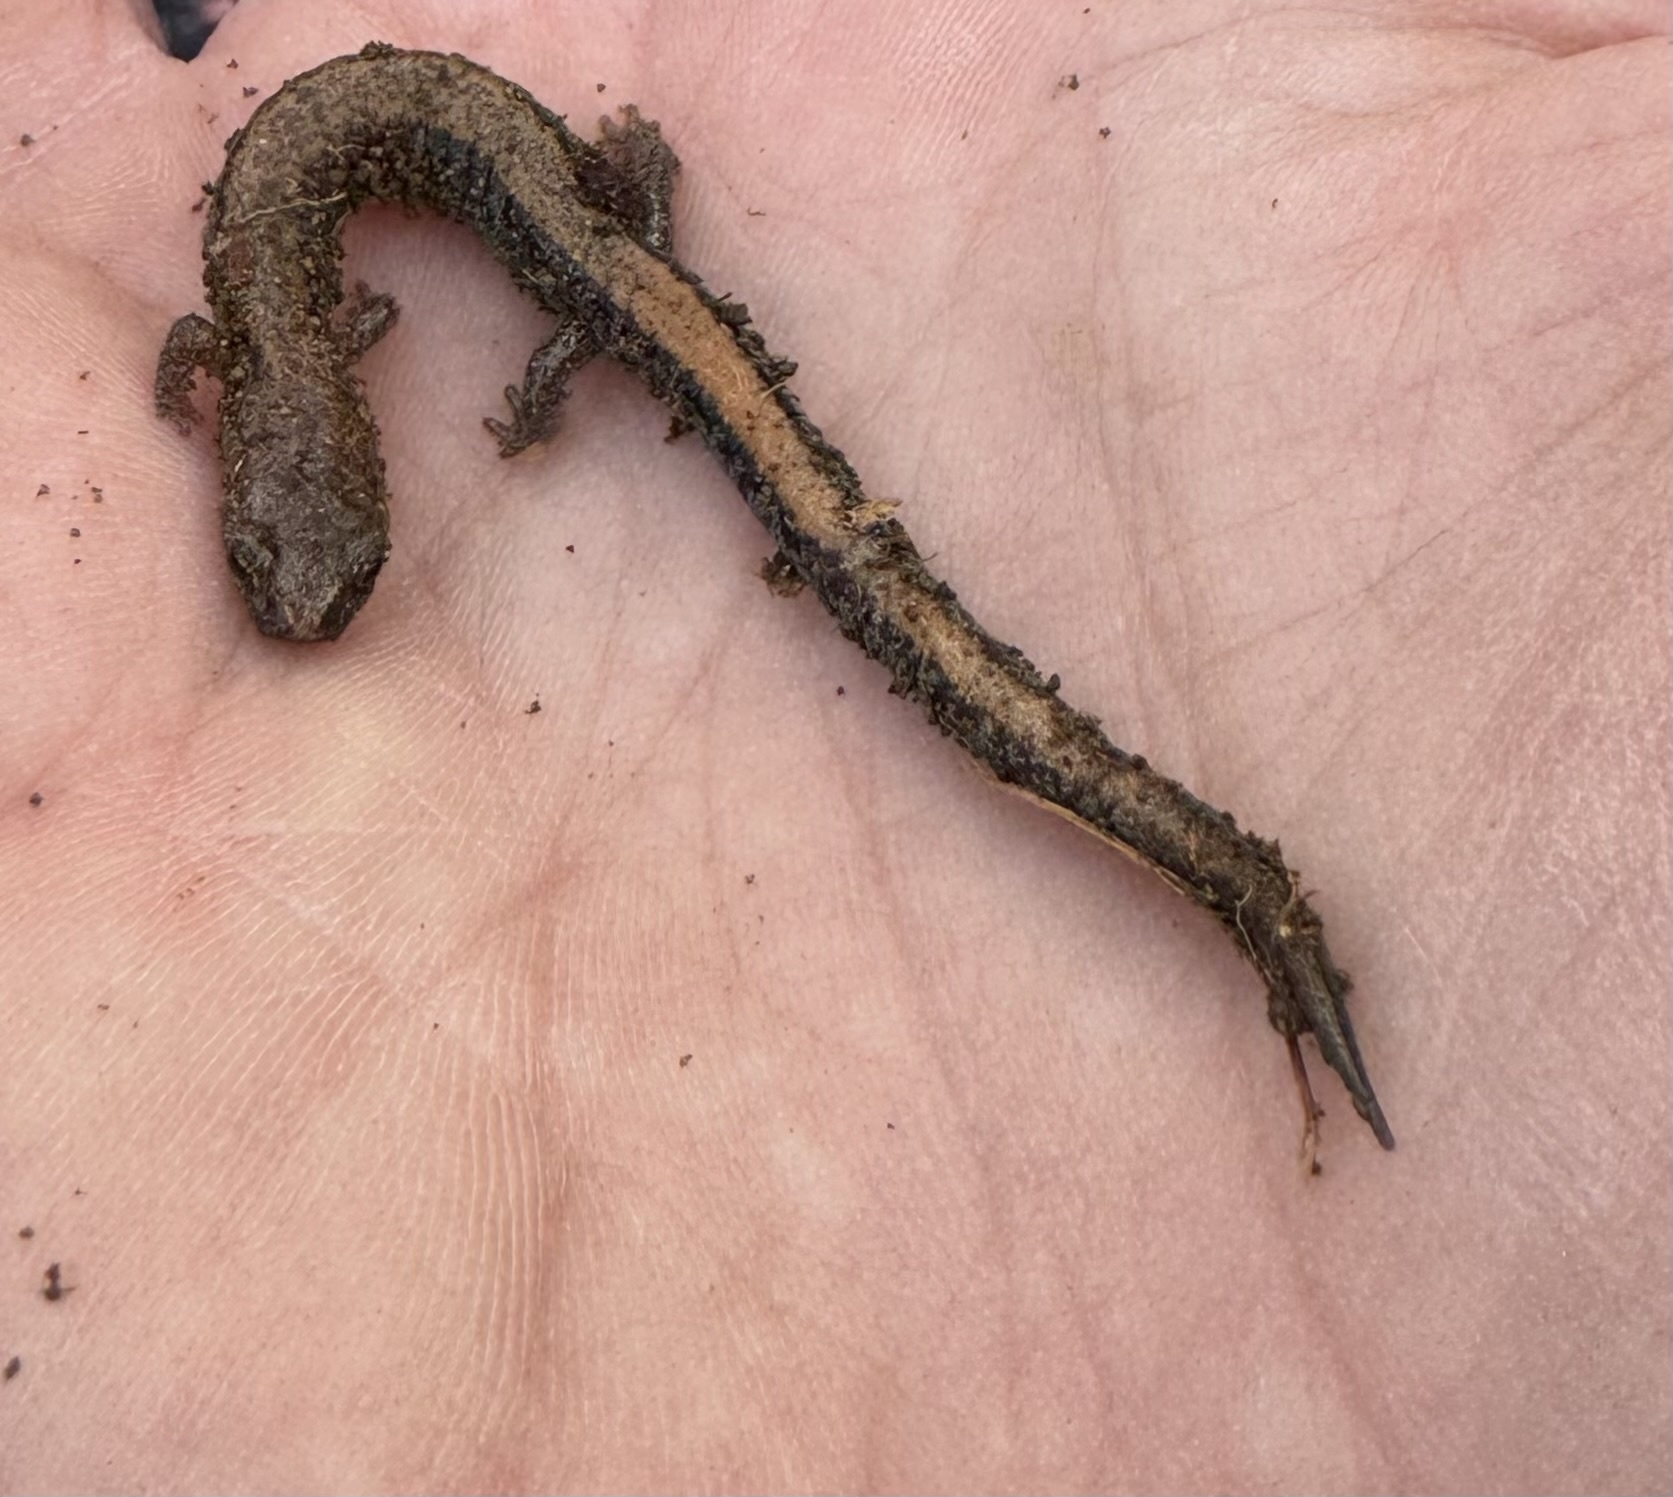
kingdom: Animalia
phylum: Chordata
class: Amphibia
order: Caudata
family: Plethodontidae
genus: Plethodon
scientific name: Plethodon cinereus
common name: Redback salamander
